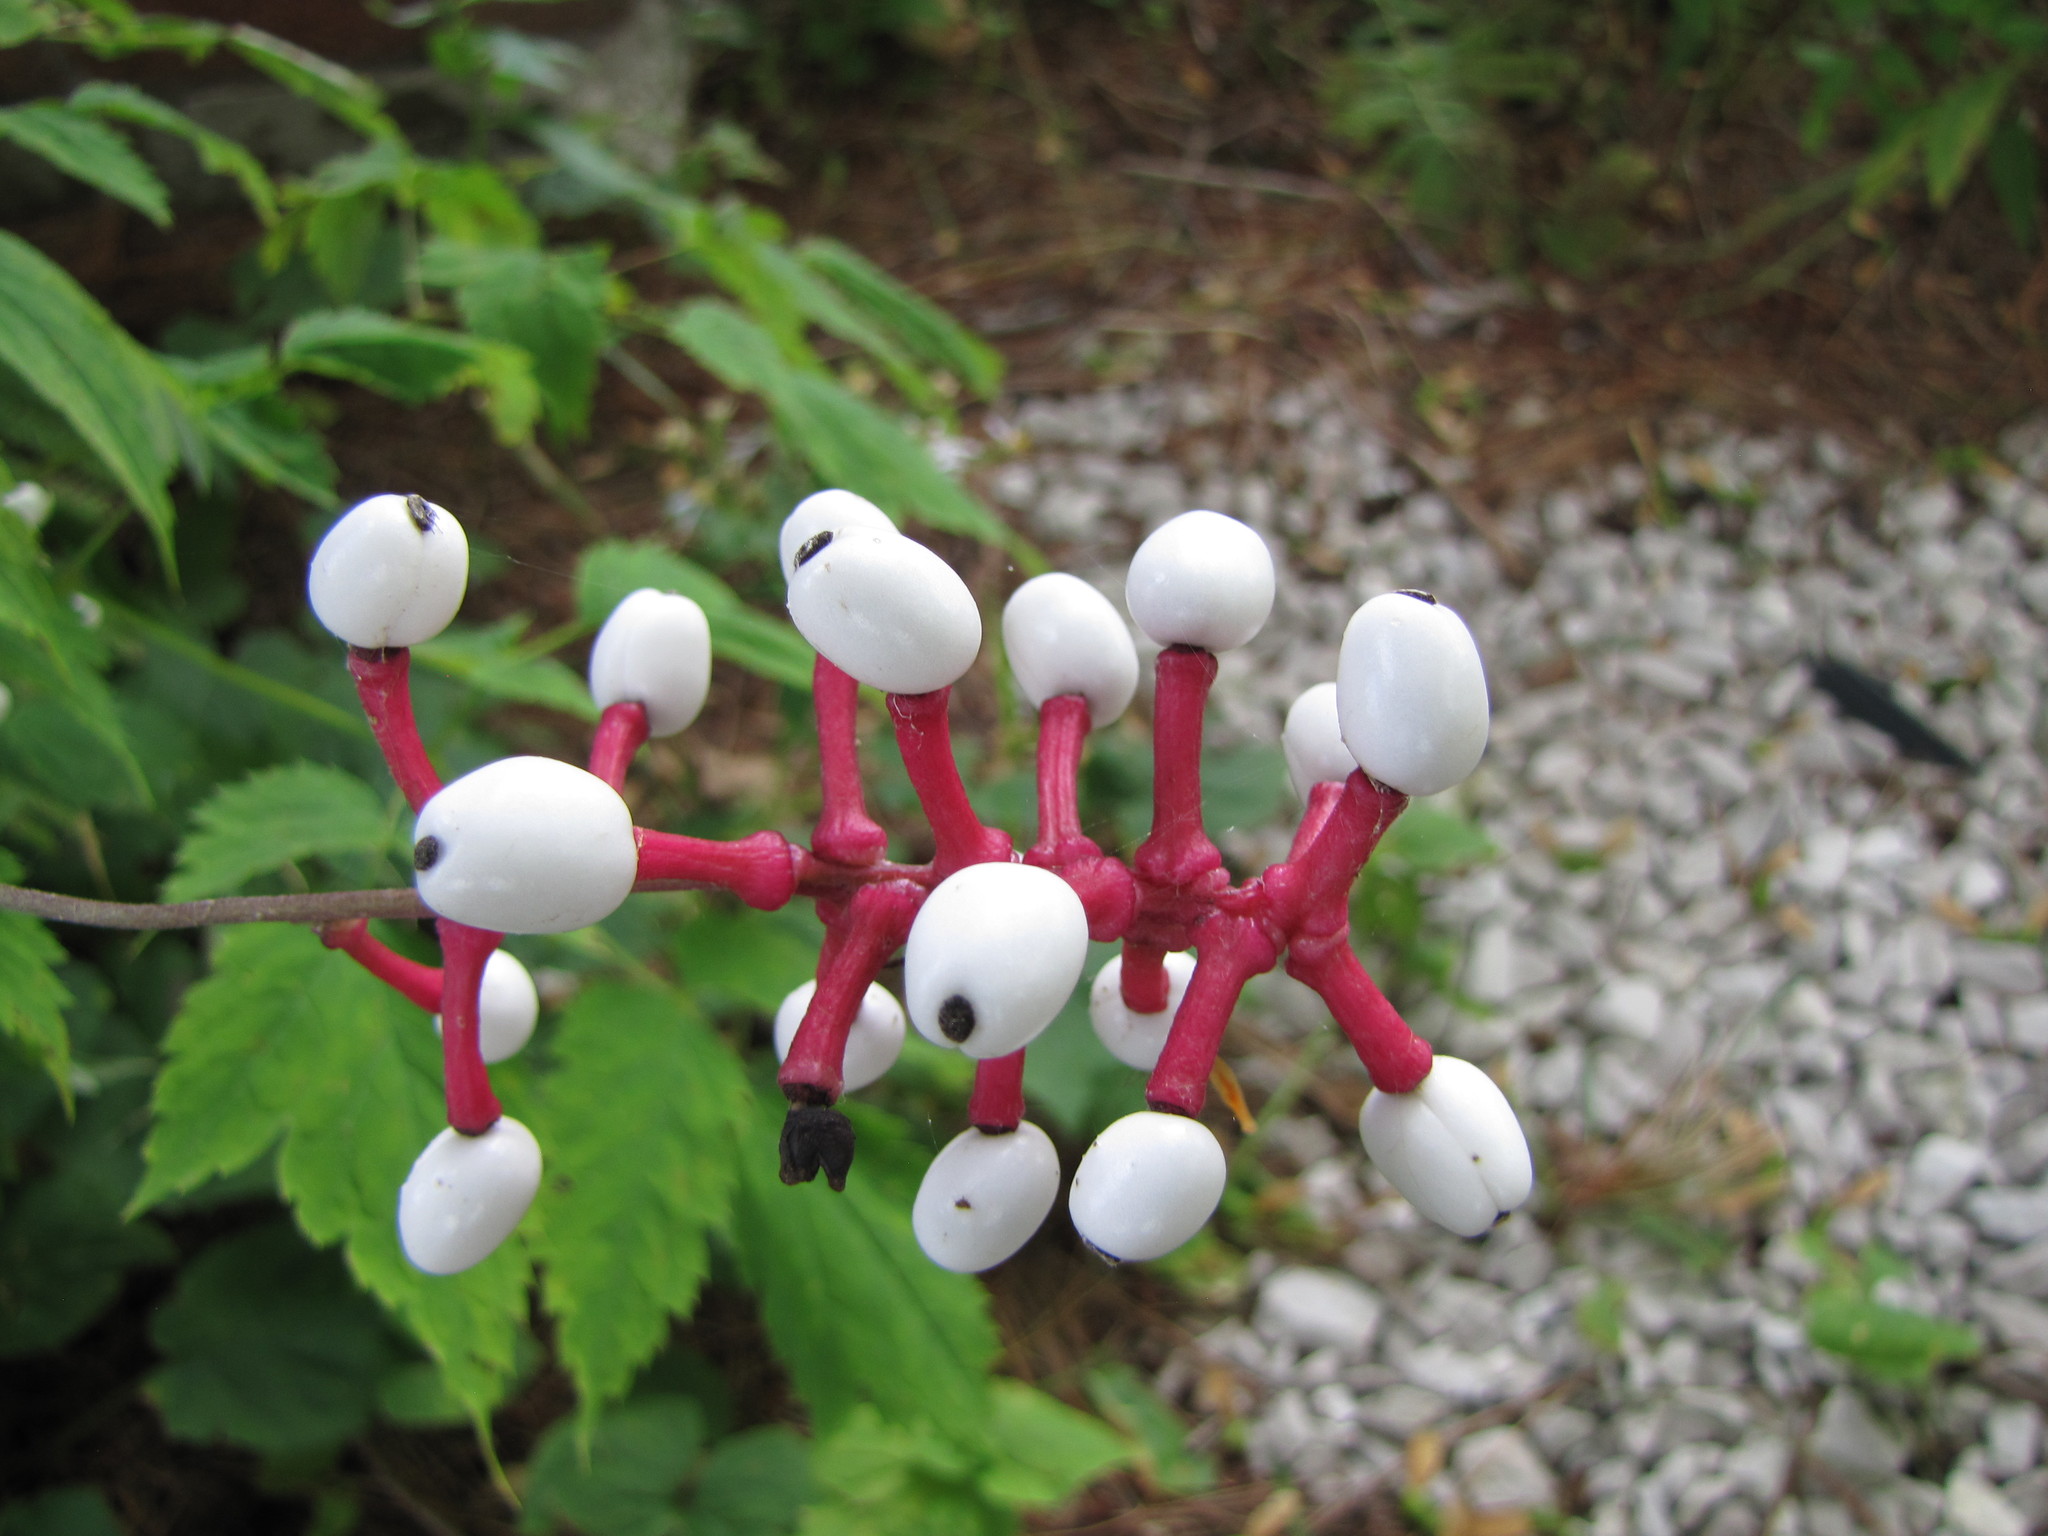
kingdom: Plantae
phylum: Tracheophyta
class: Magnoliopsida
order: Ranunculales
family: Ranunculaceae
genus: Actaea
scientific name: Actaea pachypoda
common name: Doll's-eyes
